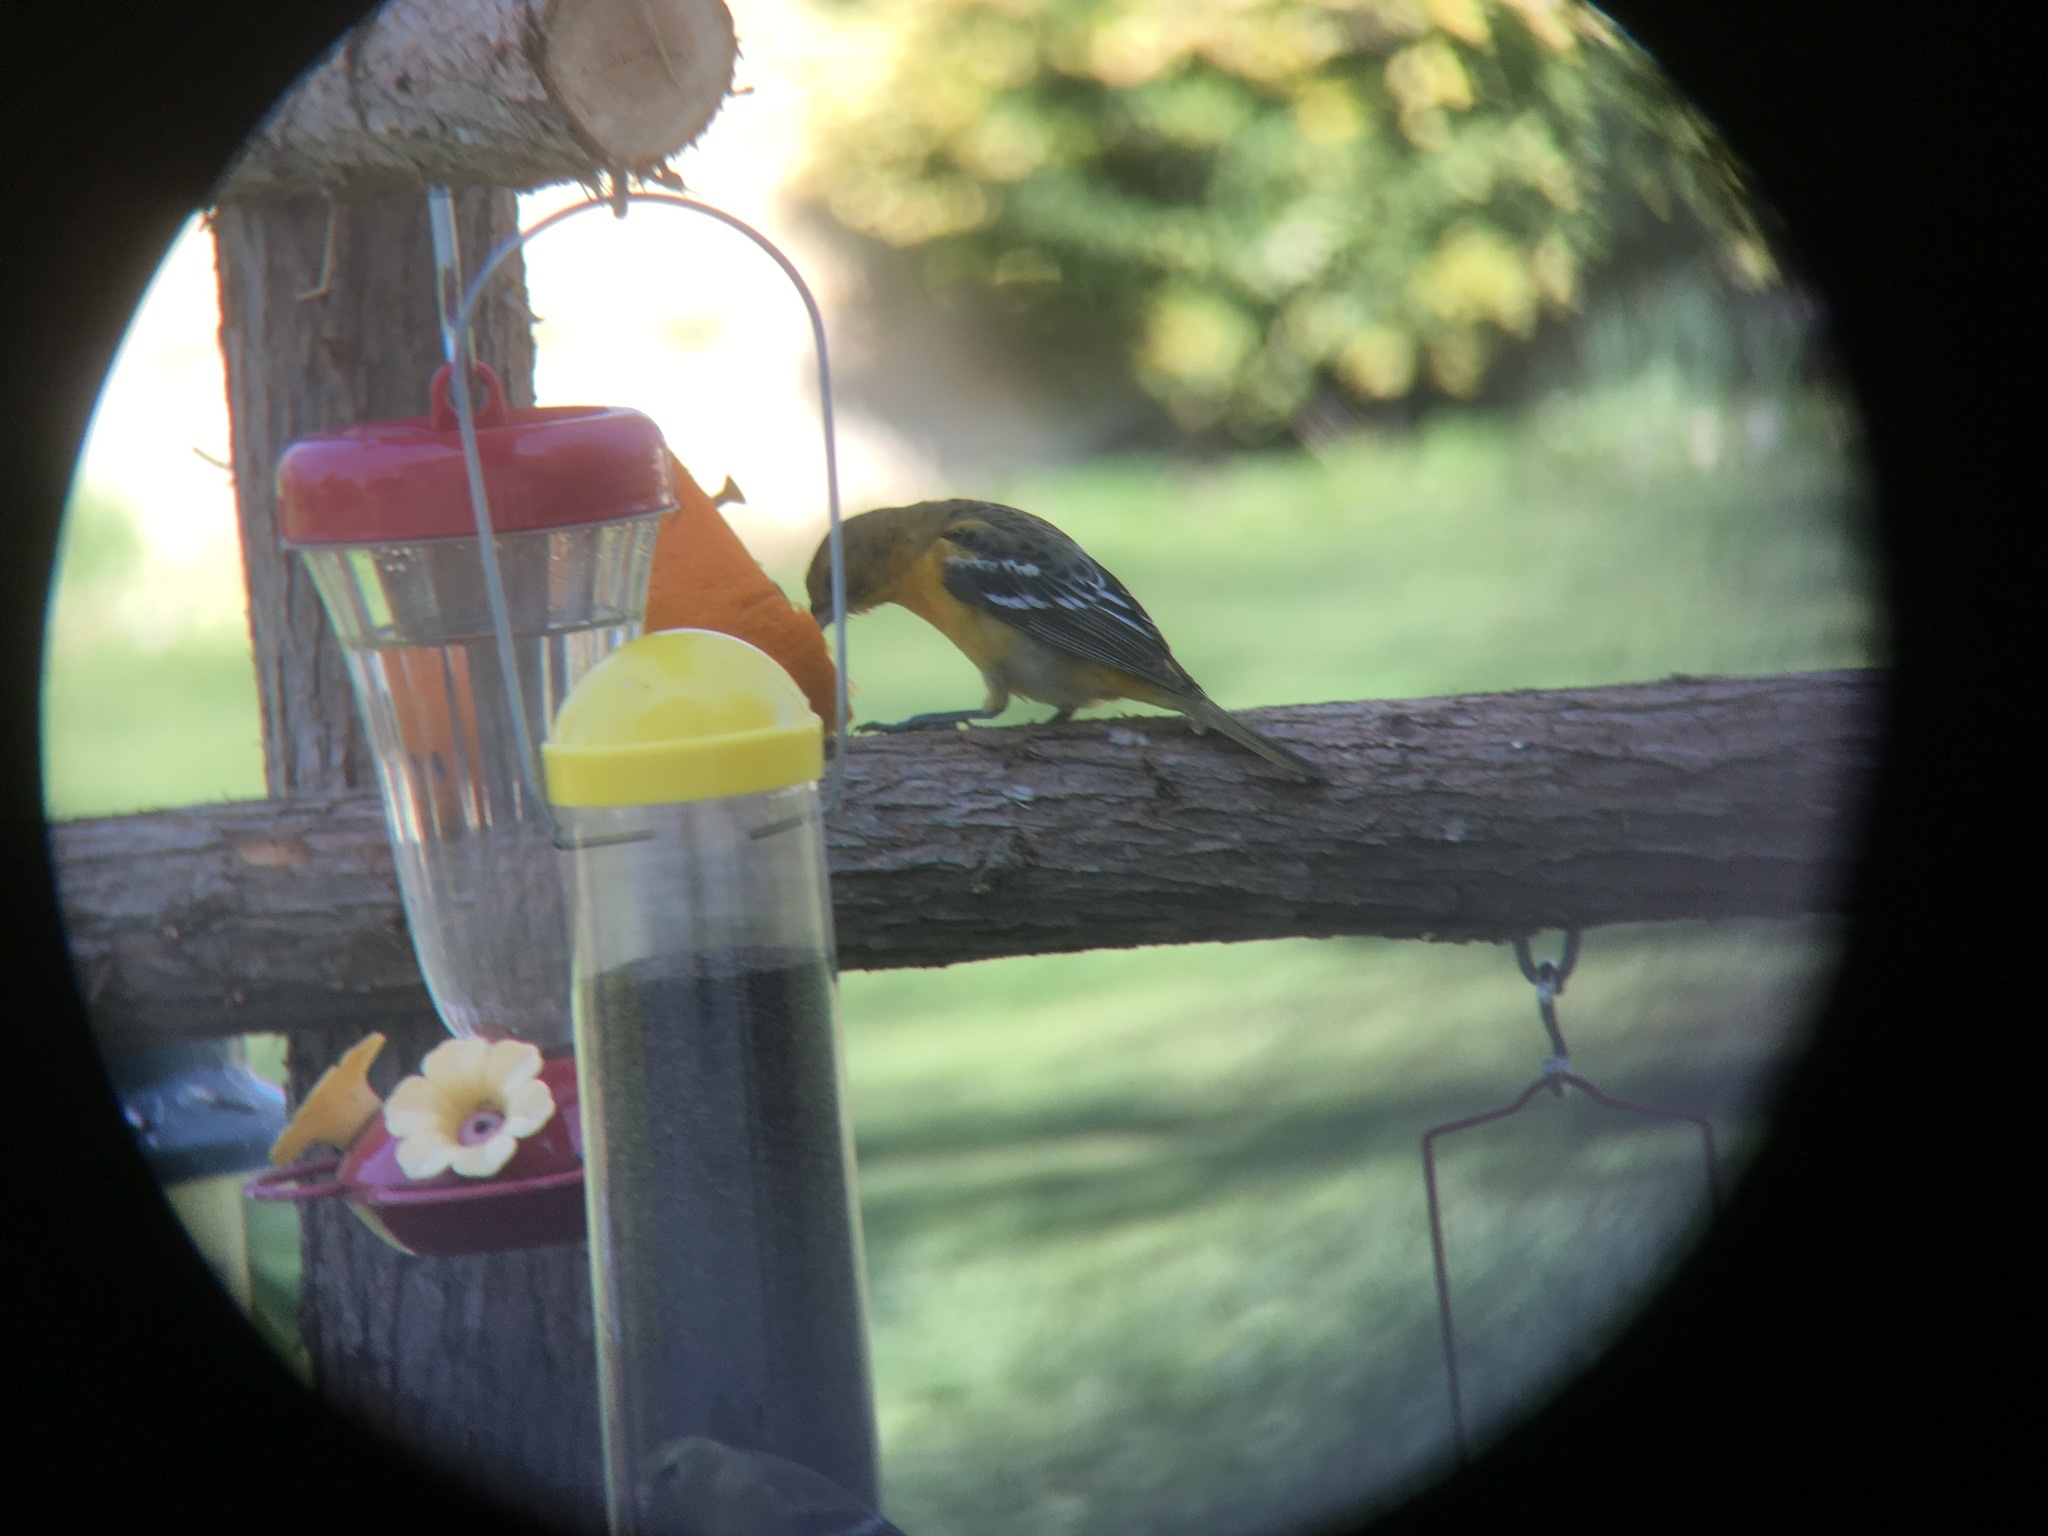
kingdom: Animalia
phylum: Chordata
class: Aves
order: Passeriformes
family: Icteridae
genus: Icterus
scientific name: Icterus galbula
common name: Baltimore oriole
